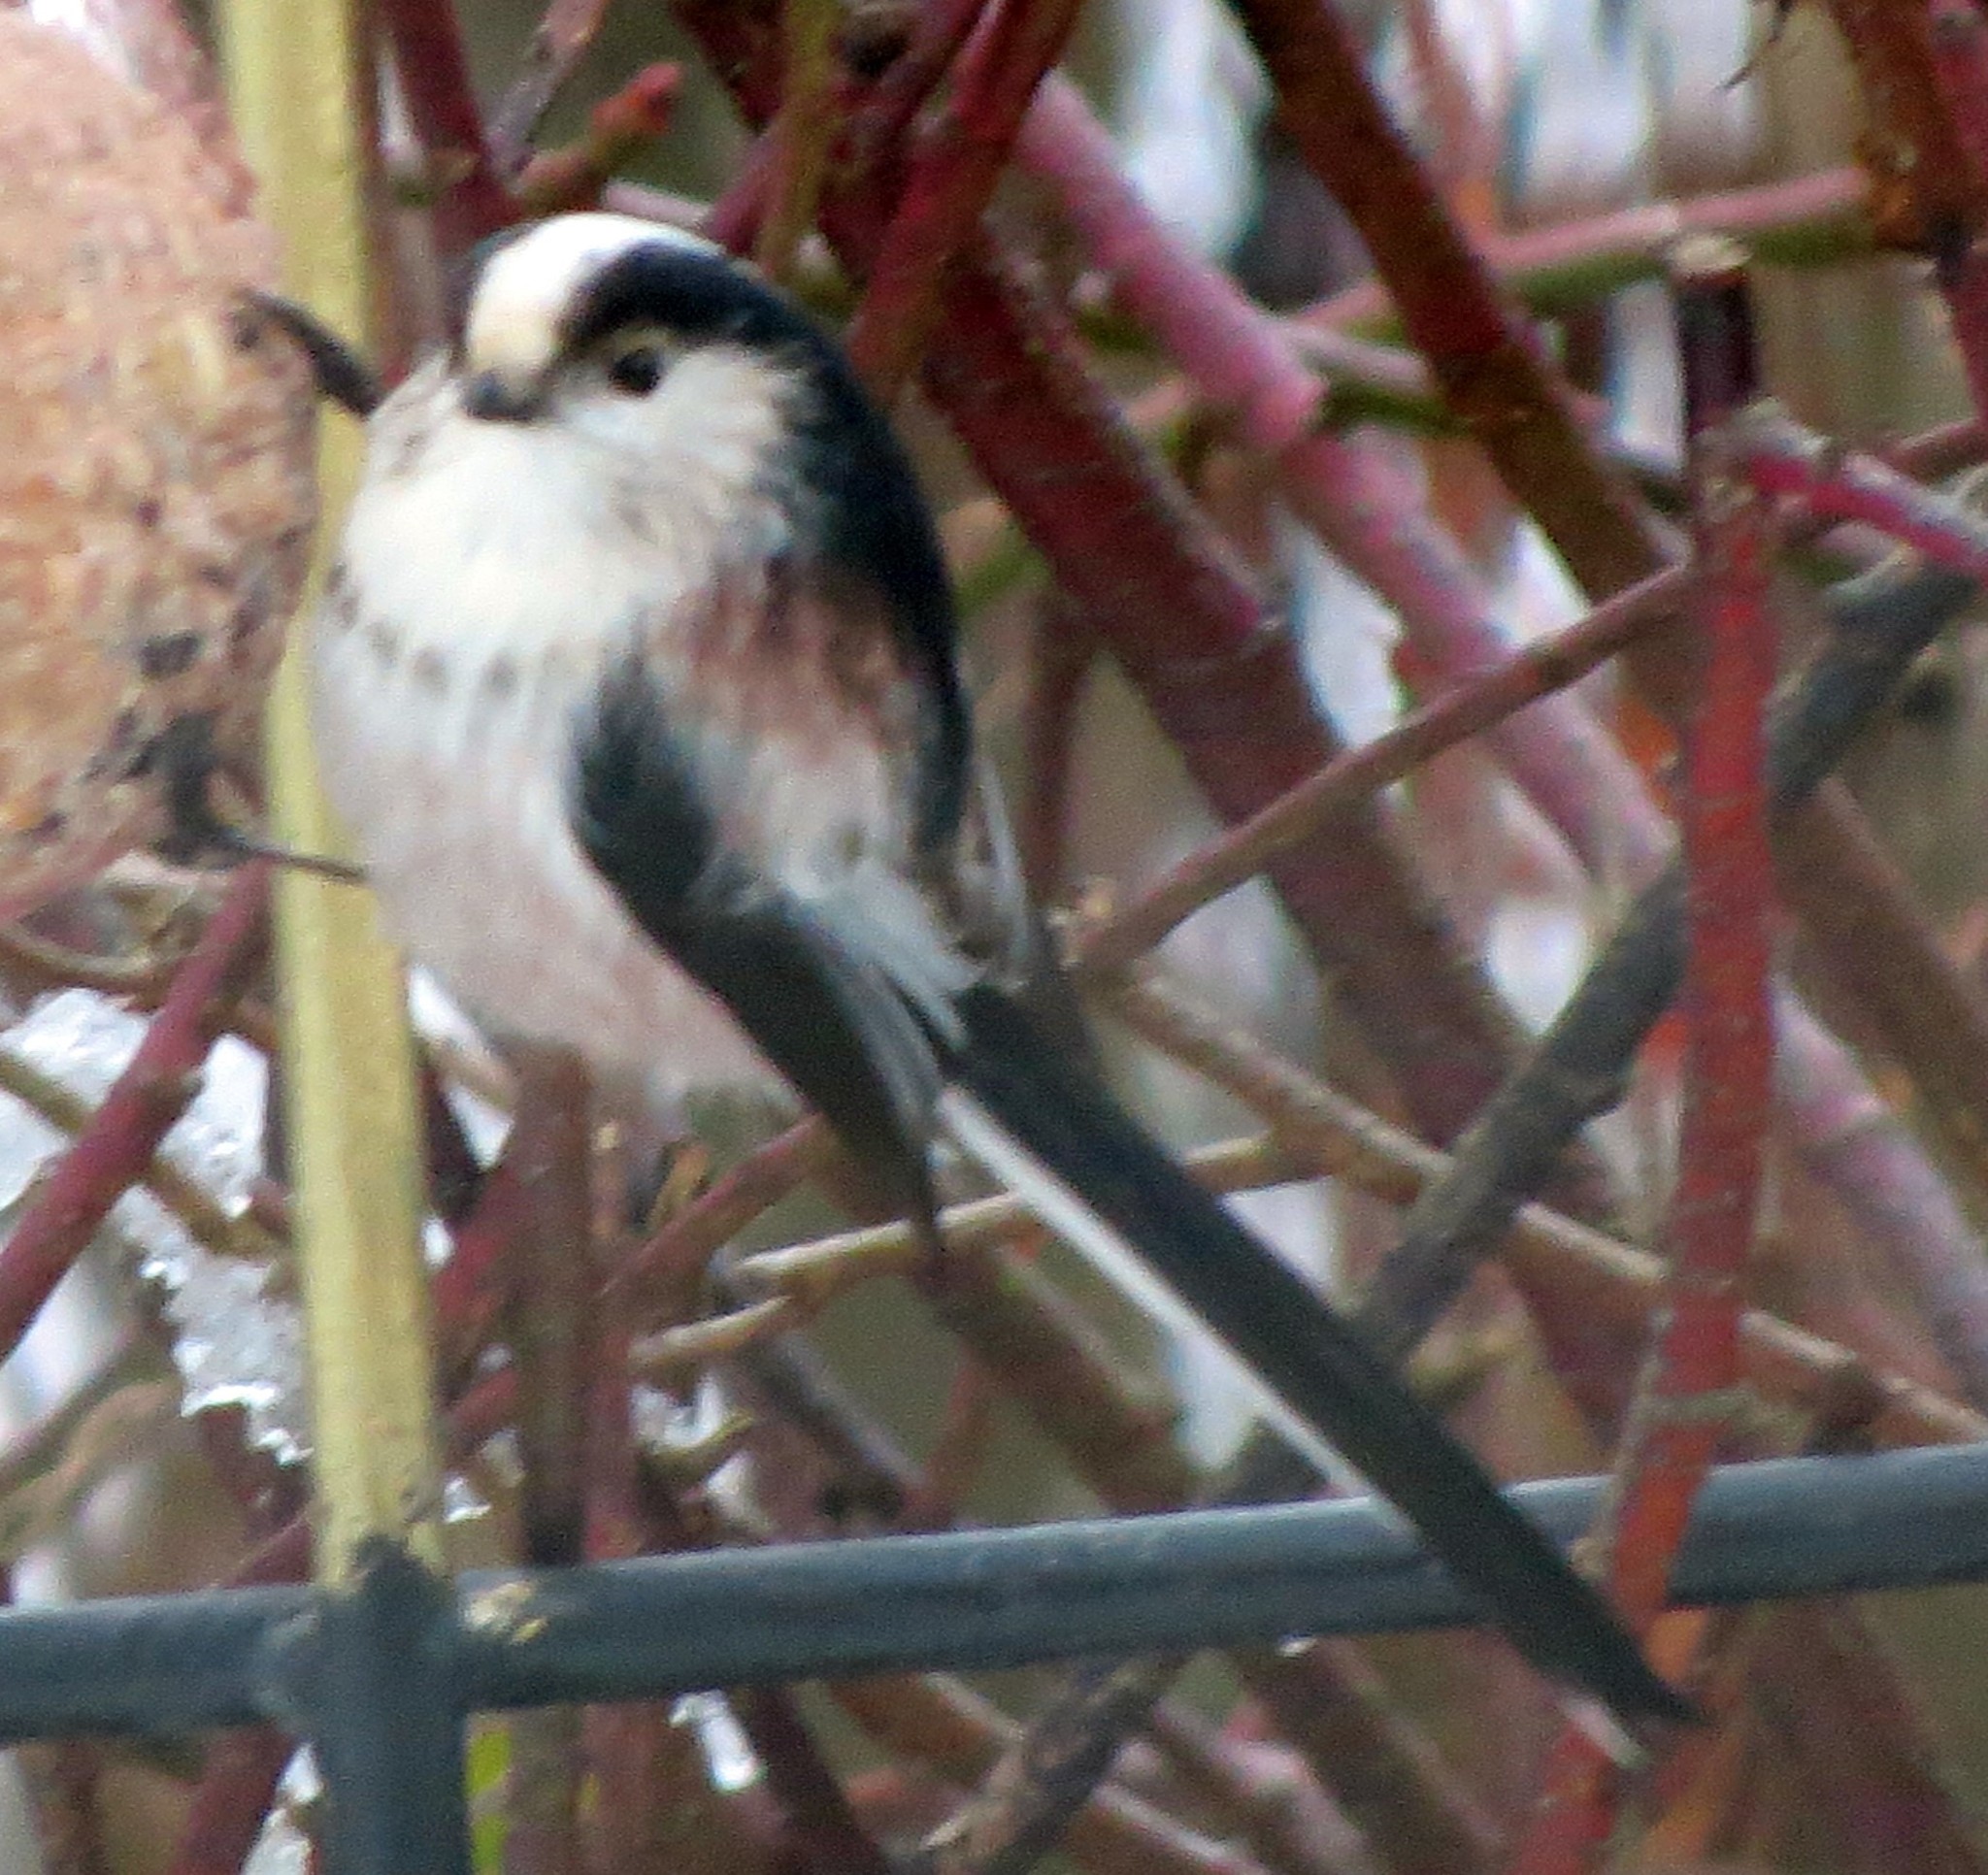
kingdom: Animalia
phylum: Chordata
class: Aves
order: Passeriformes
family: Aegithalidae
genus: Aegithalos
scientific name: Aegithalos caudatus
